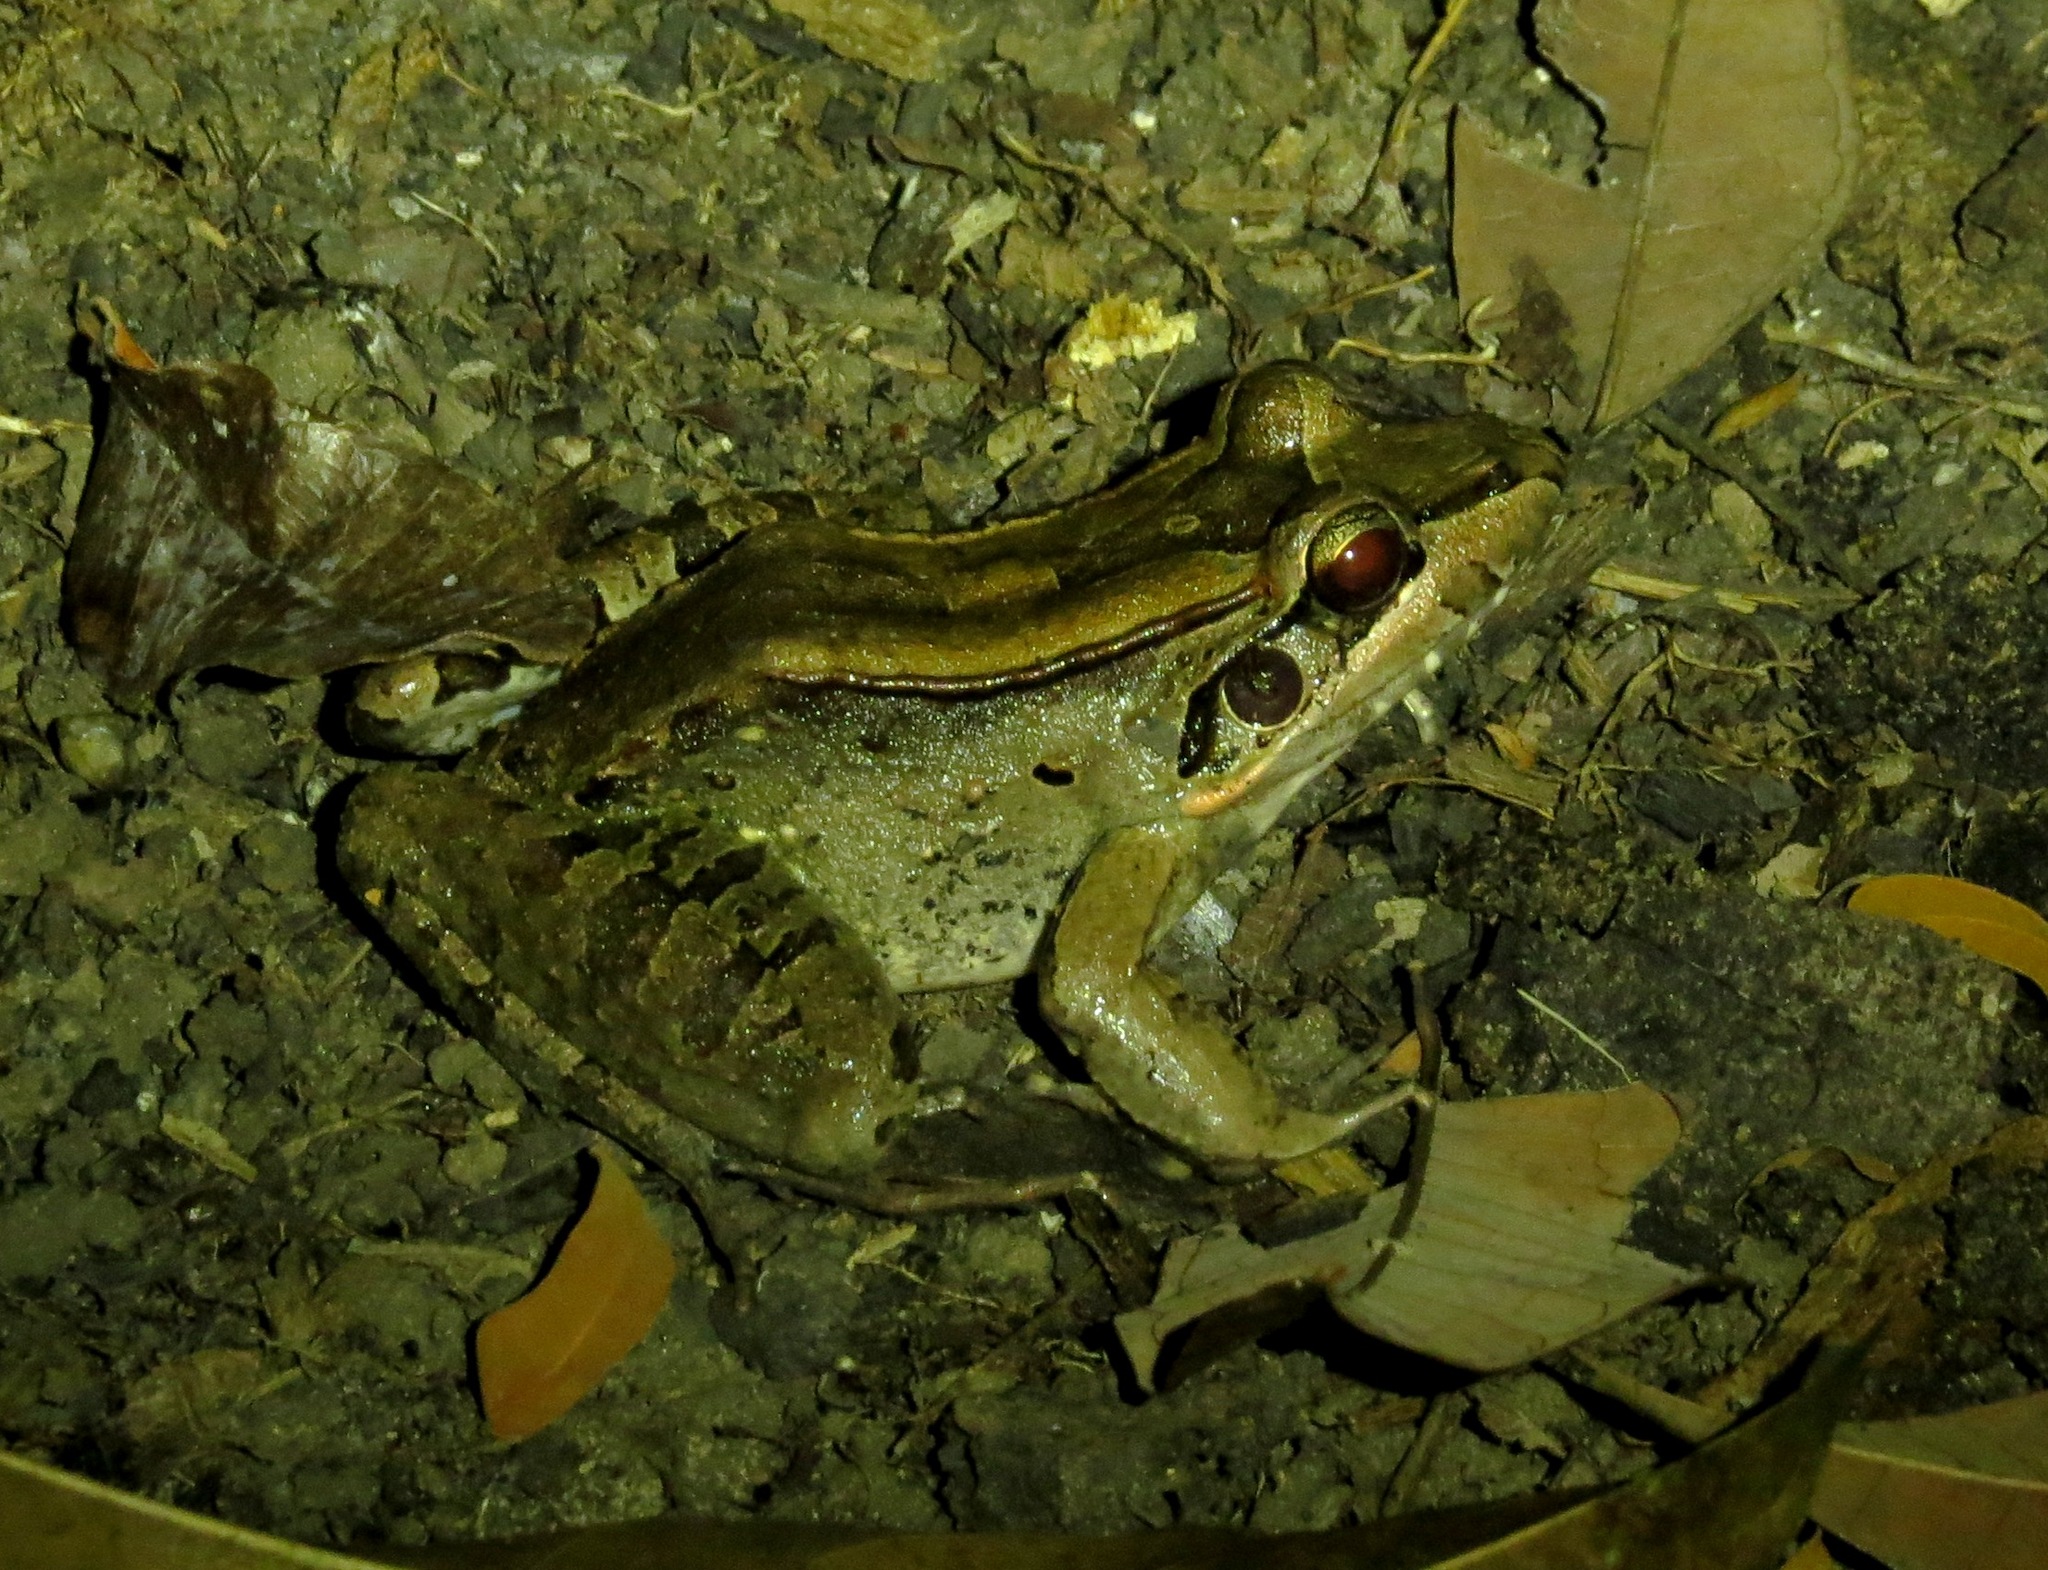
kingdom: Animalia
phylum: Chordata
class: Amphibia
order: Anura
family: Leptodactylidae
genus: Leptodactylus
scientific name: Leptodactylus guianensis
